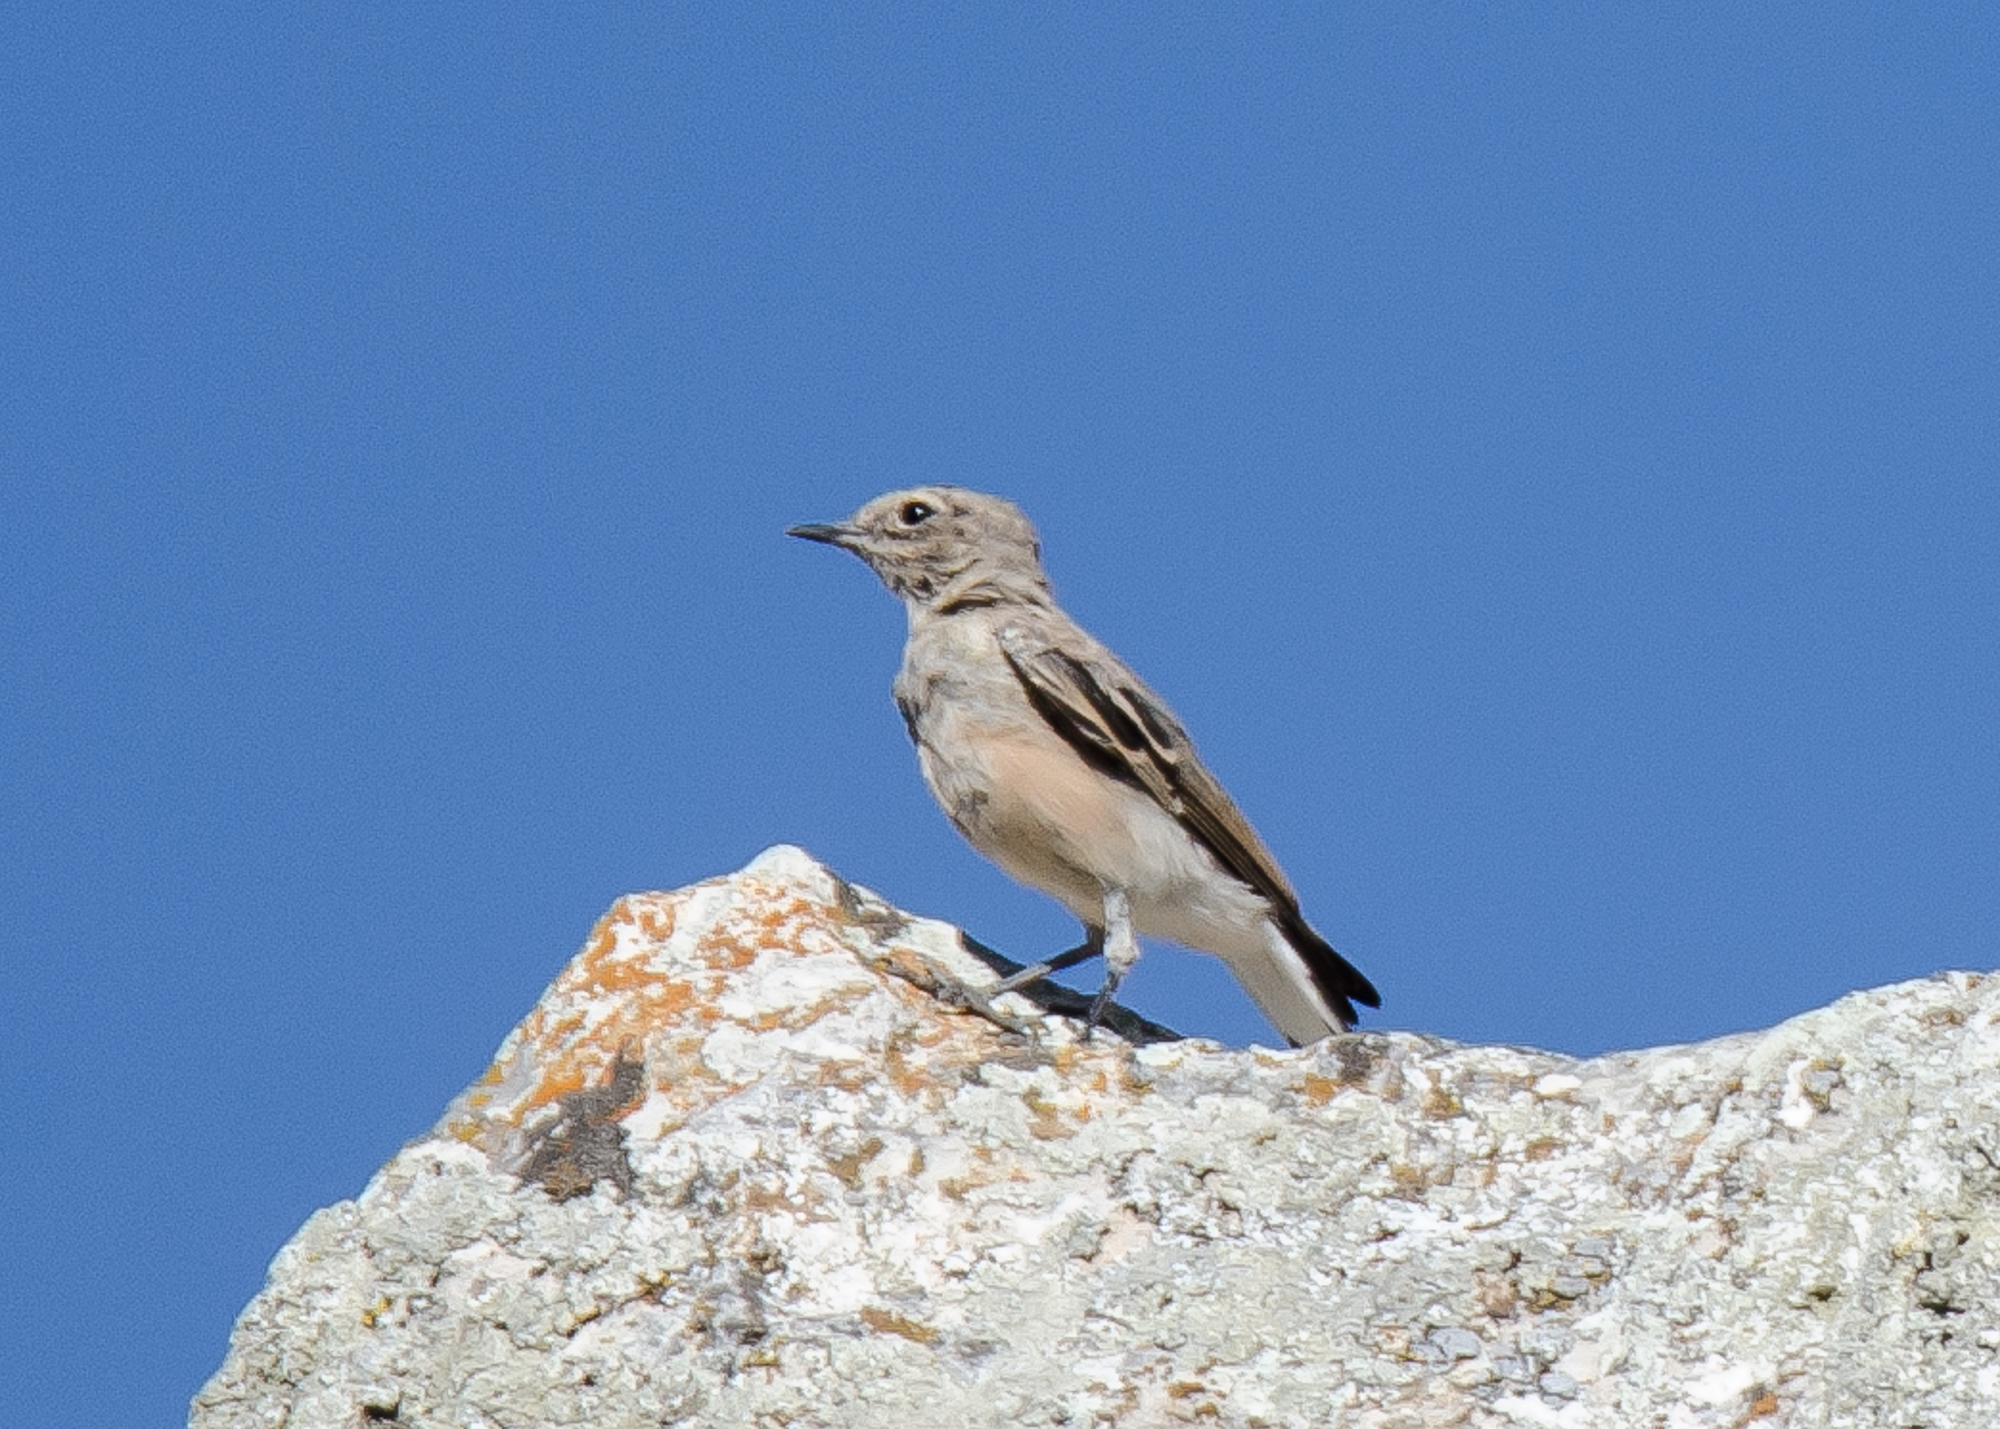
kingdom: Animalia
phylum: Chordata
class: Aves
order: Passeriformes
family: Muscicapidae
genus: Oenanthe
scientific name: Oenanthe hispanica
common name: Black-eared wheatear
